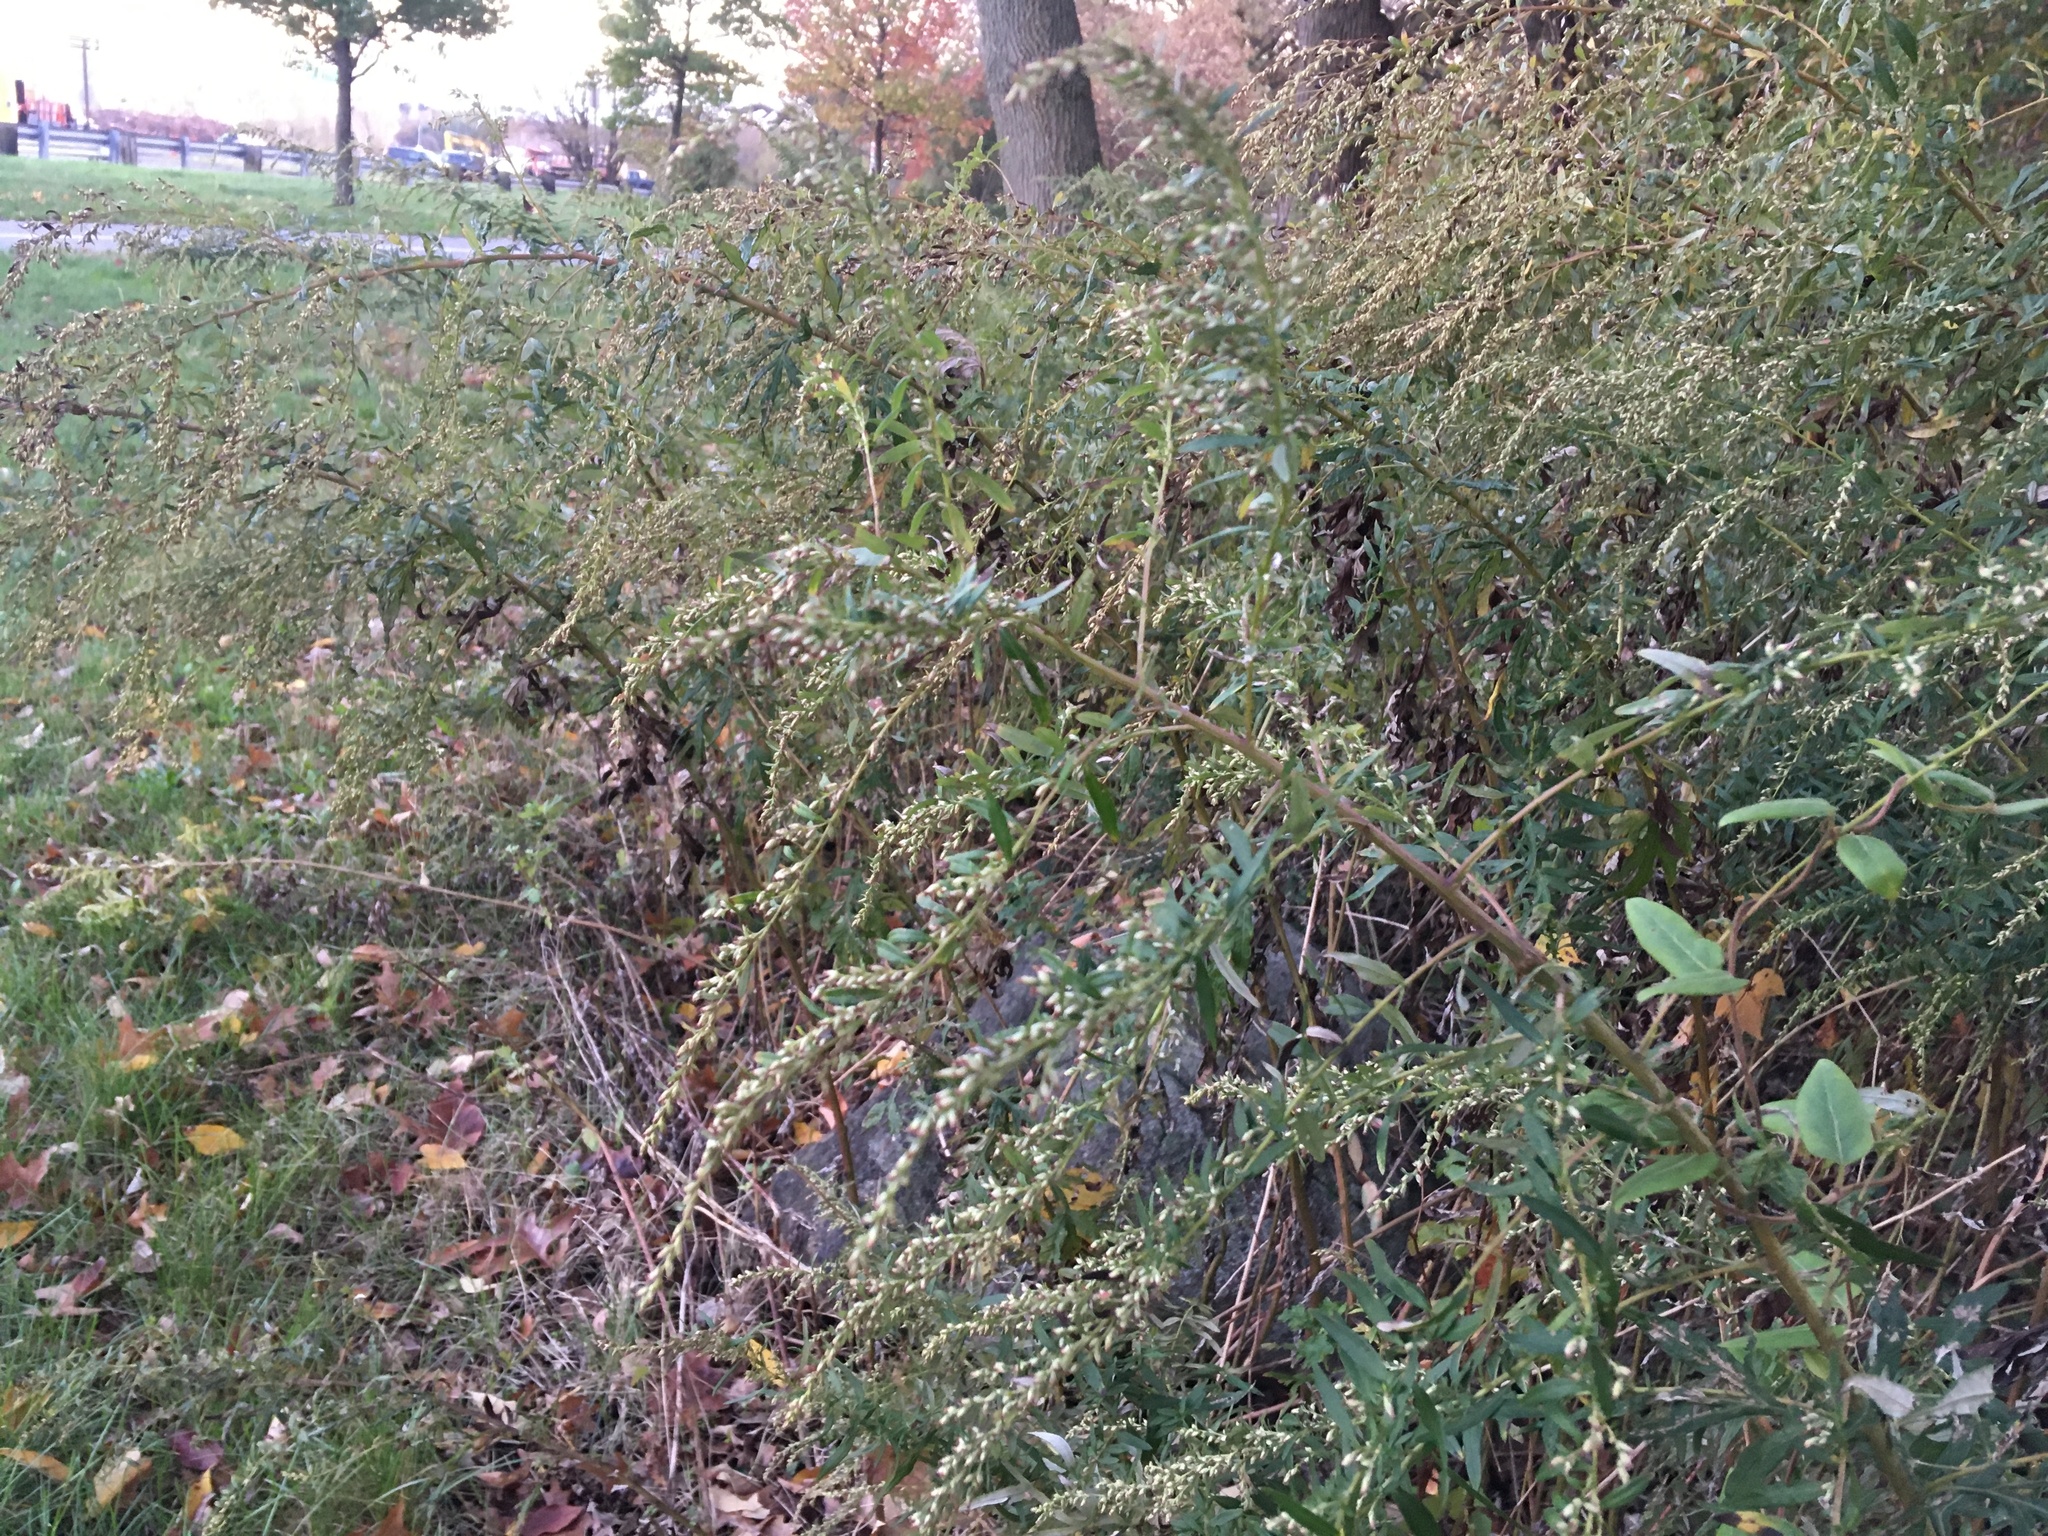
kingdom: Plantae
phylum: Tracheophyta
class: Magnoliopsida
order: Asterales
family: Asteraceae
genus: Artemisia
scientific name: Artemisia vulgaris
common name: Mugwort
